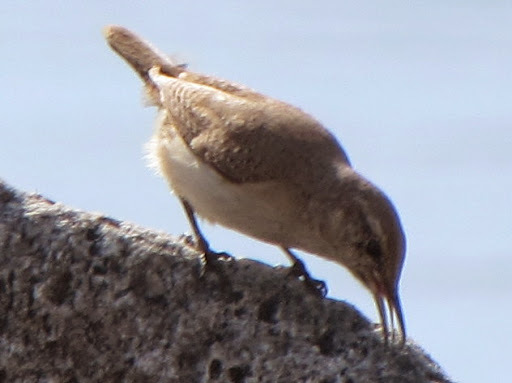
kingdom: Animalia
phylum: Chordata
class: Aves
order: Passeriformes
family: Troglodytidae
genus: Thryomanes
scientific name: Thryomanes bewickii
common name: Bewick's wren
